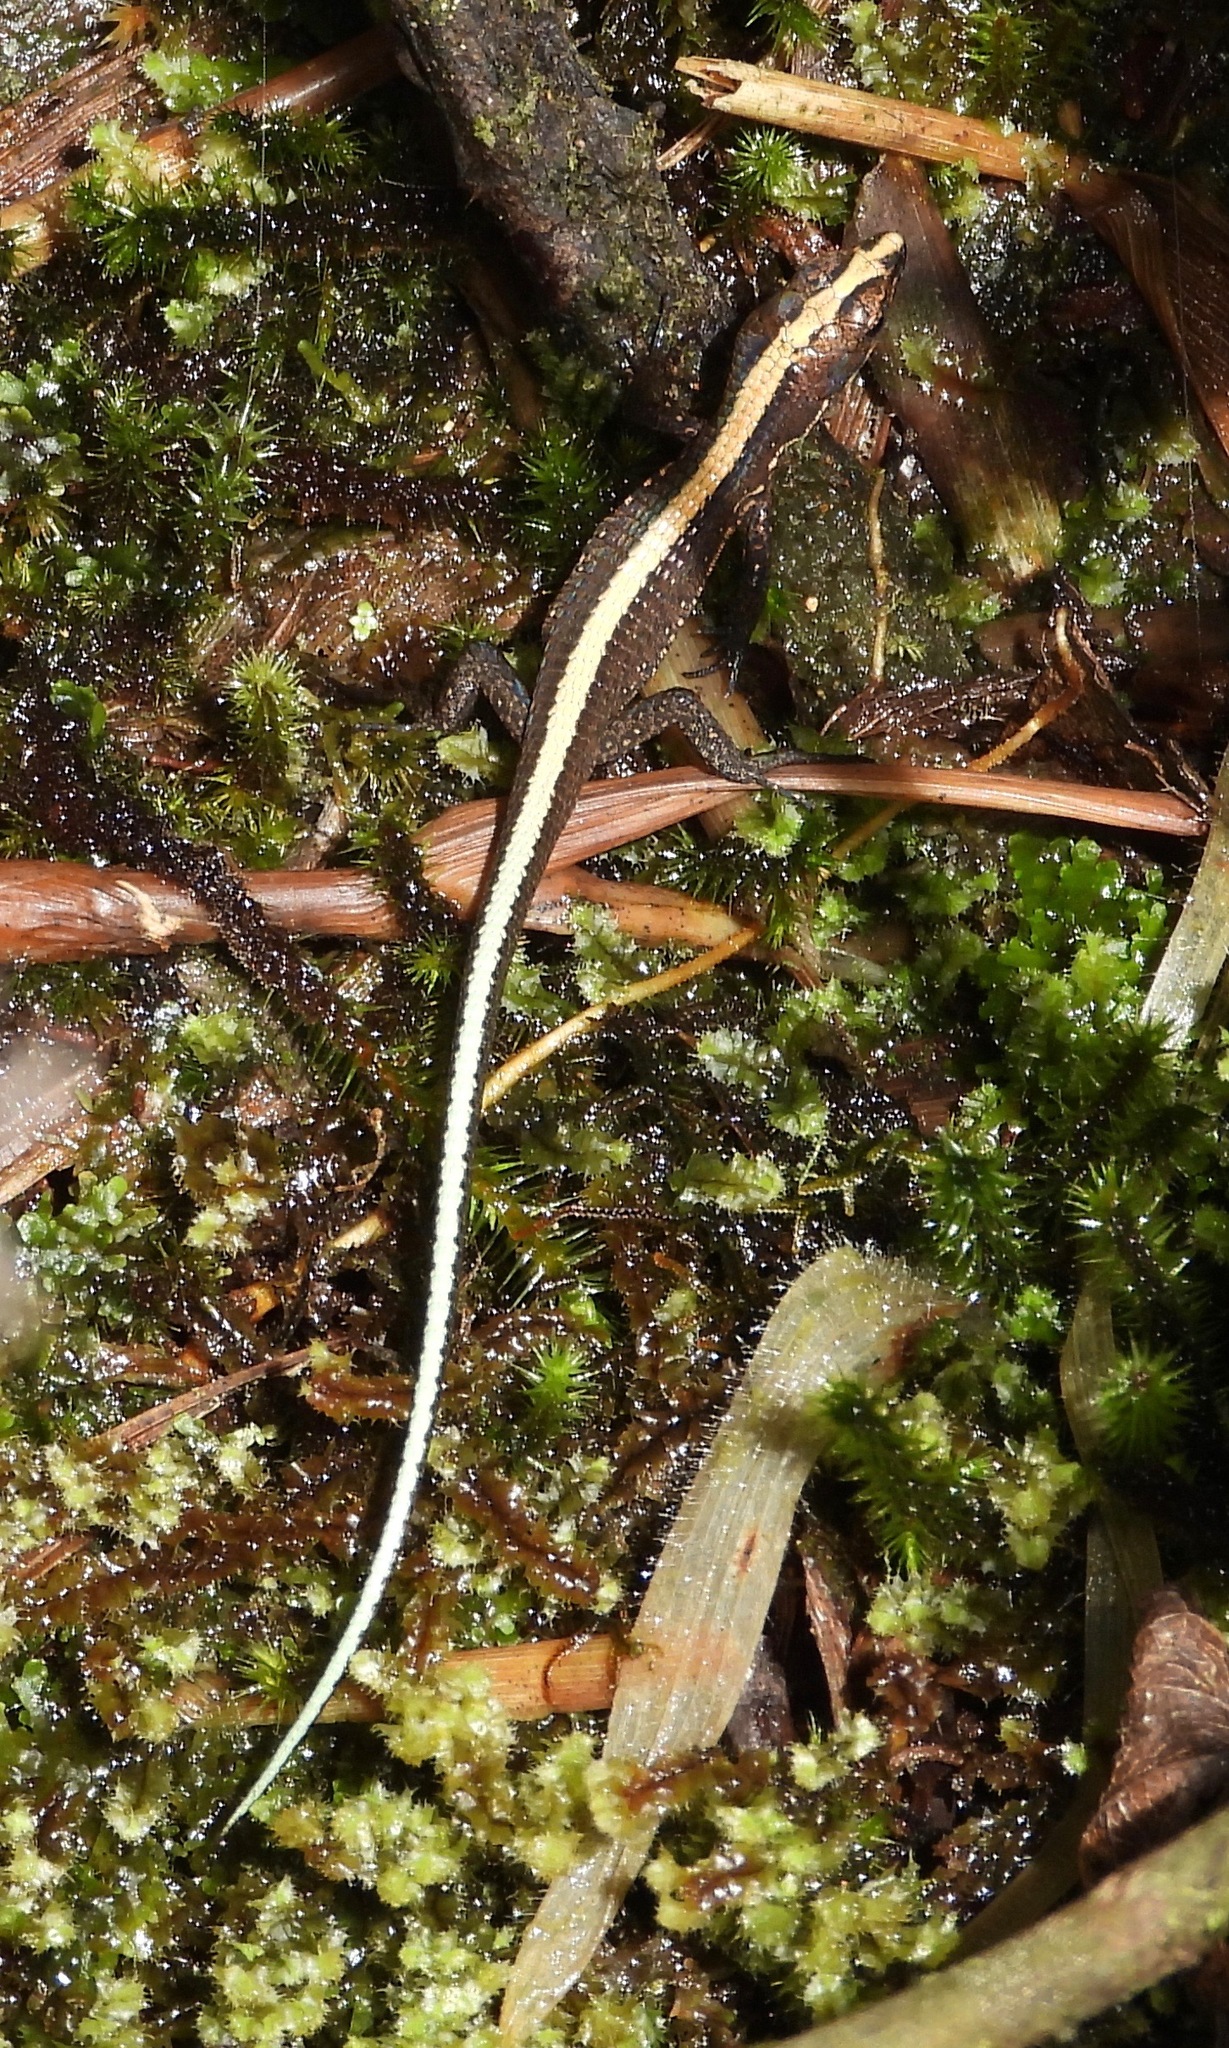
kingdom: Animalia
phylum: Chordata
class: Squamata
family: Gymnophthalmidae
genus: Pholidobolus
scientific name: Pholidobolus vertebralis
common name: Brown prionodactylus
